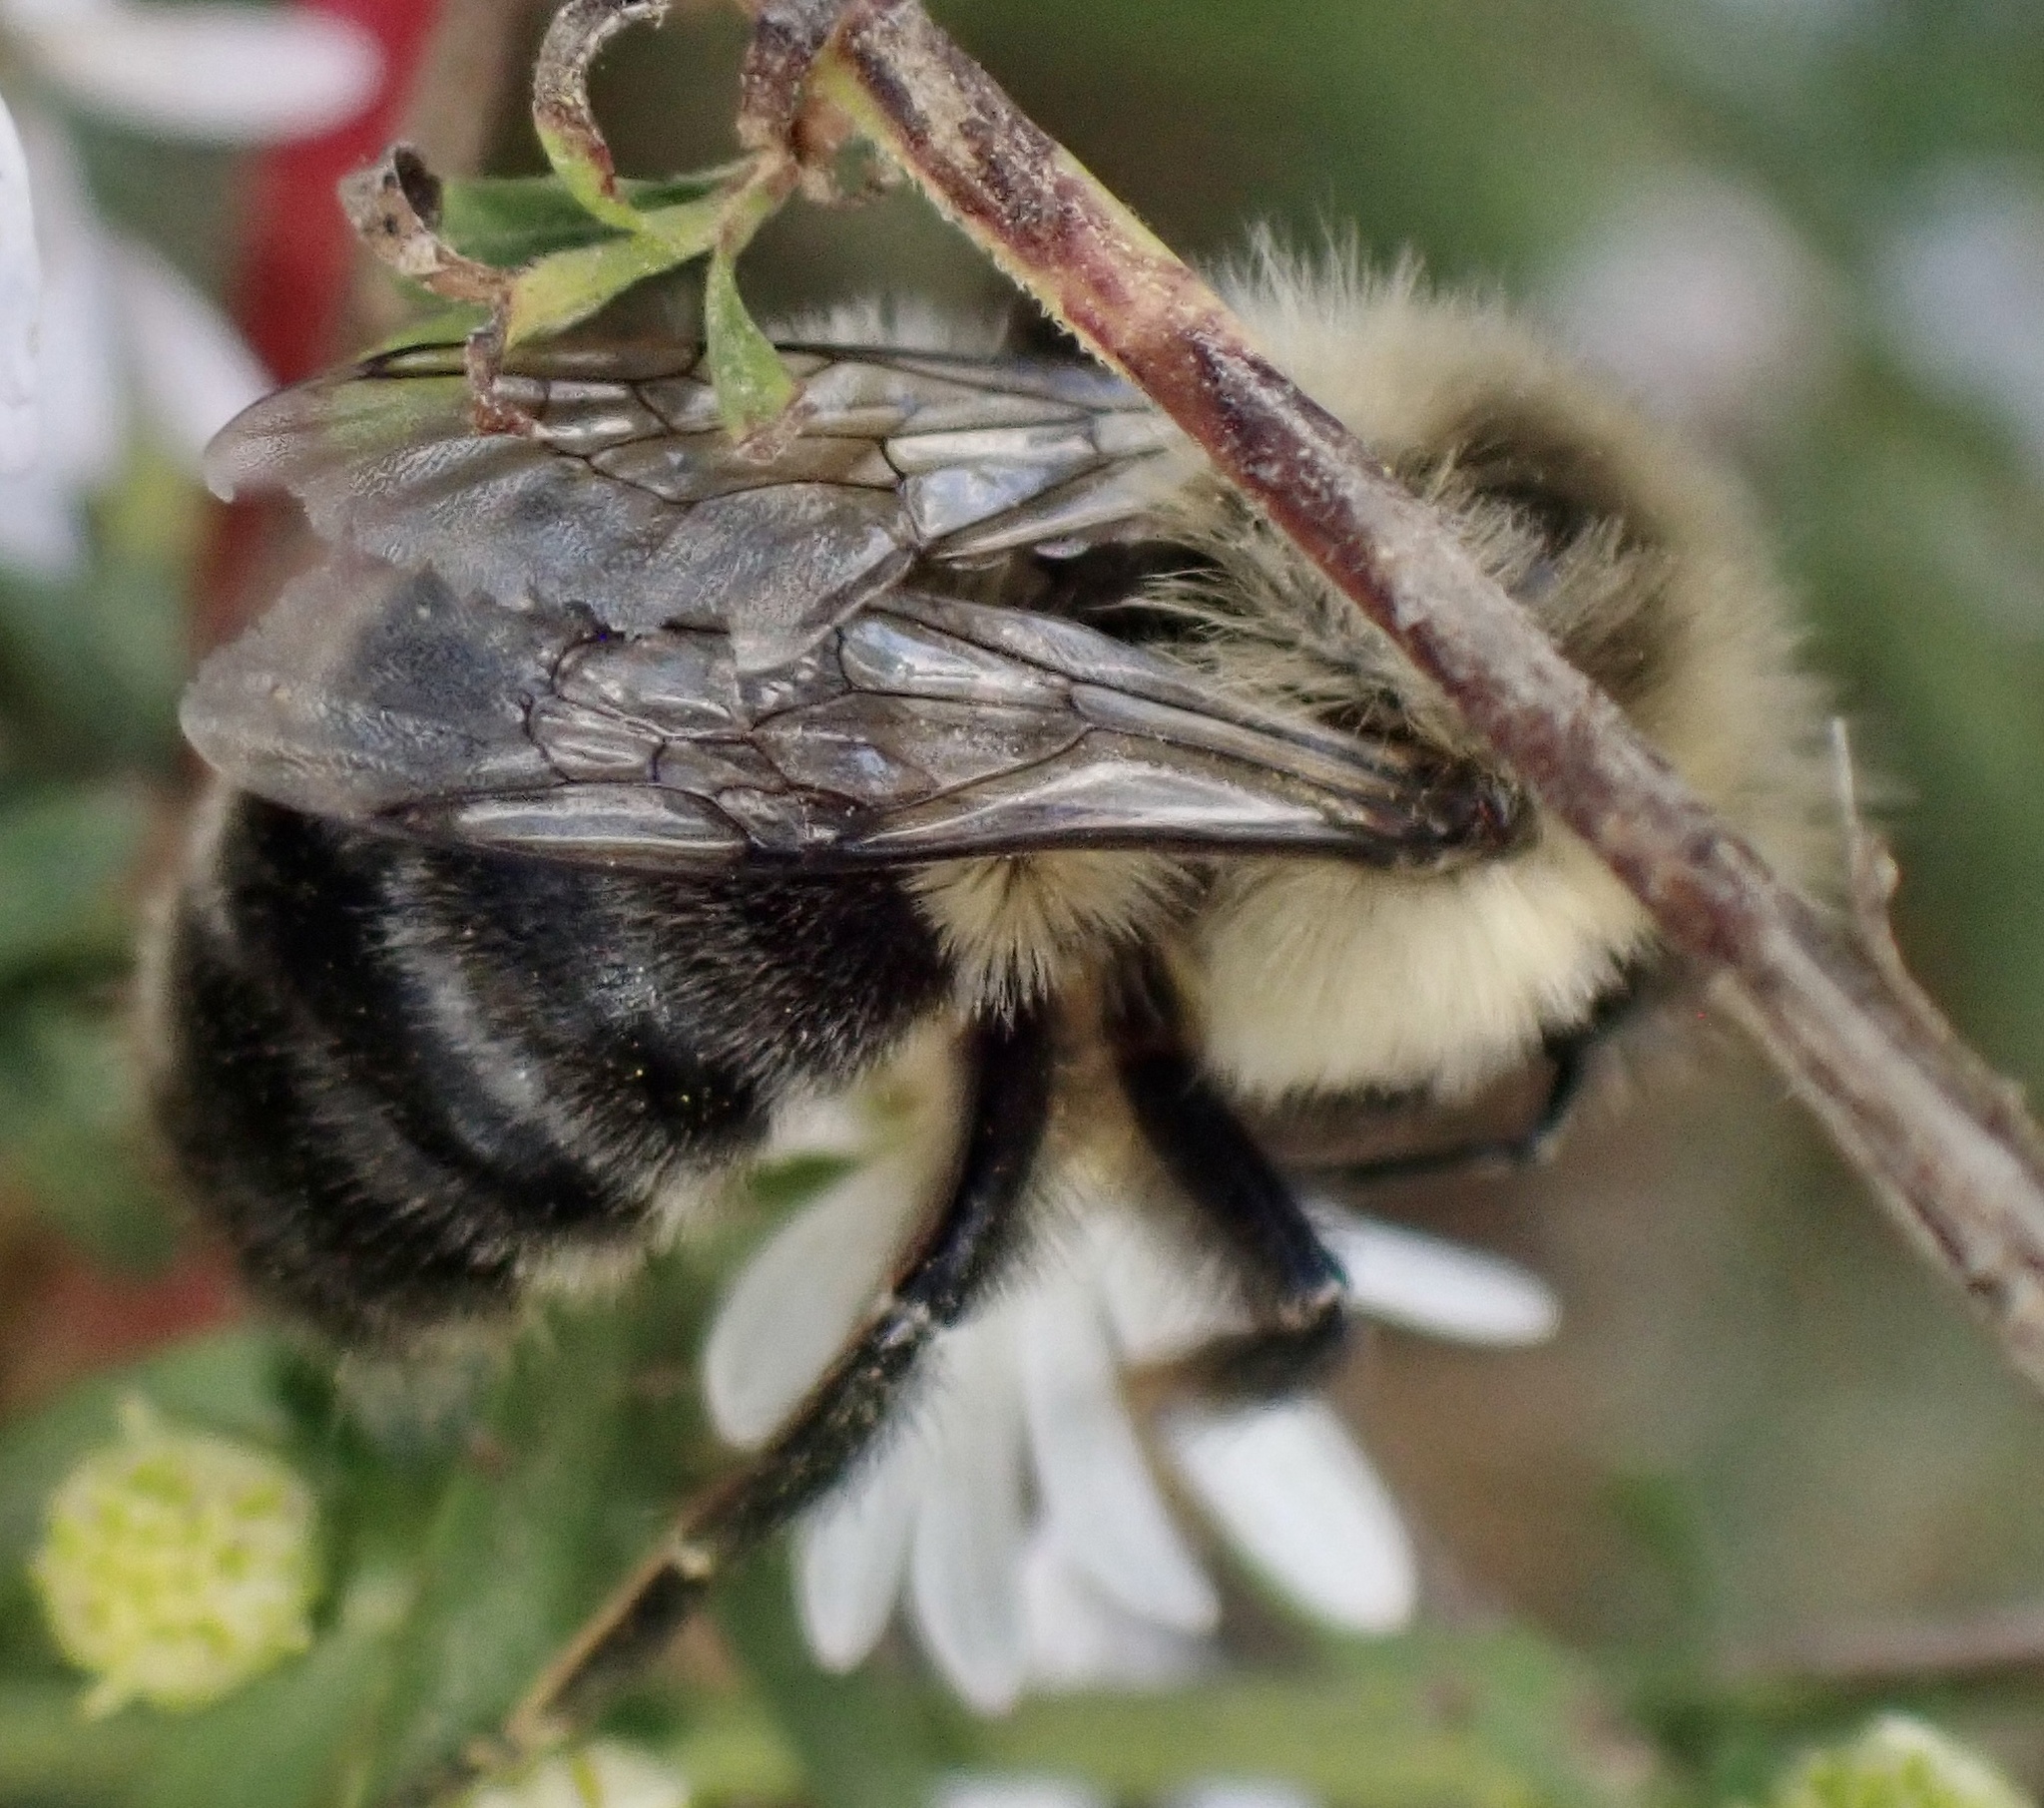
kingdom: Animalia
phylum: Arthropoda
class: Insecta
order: Hymenoptera
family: Apidae
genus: Bombus
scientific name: Bombus impatiens
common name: Common eastern bumble bee
